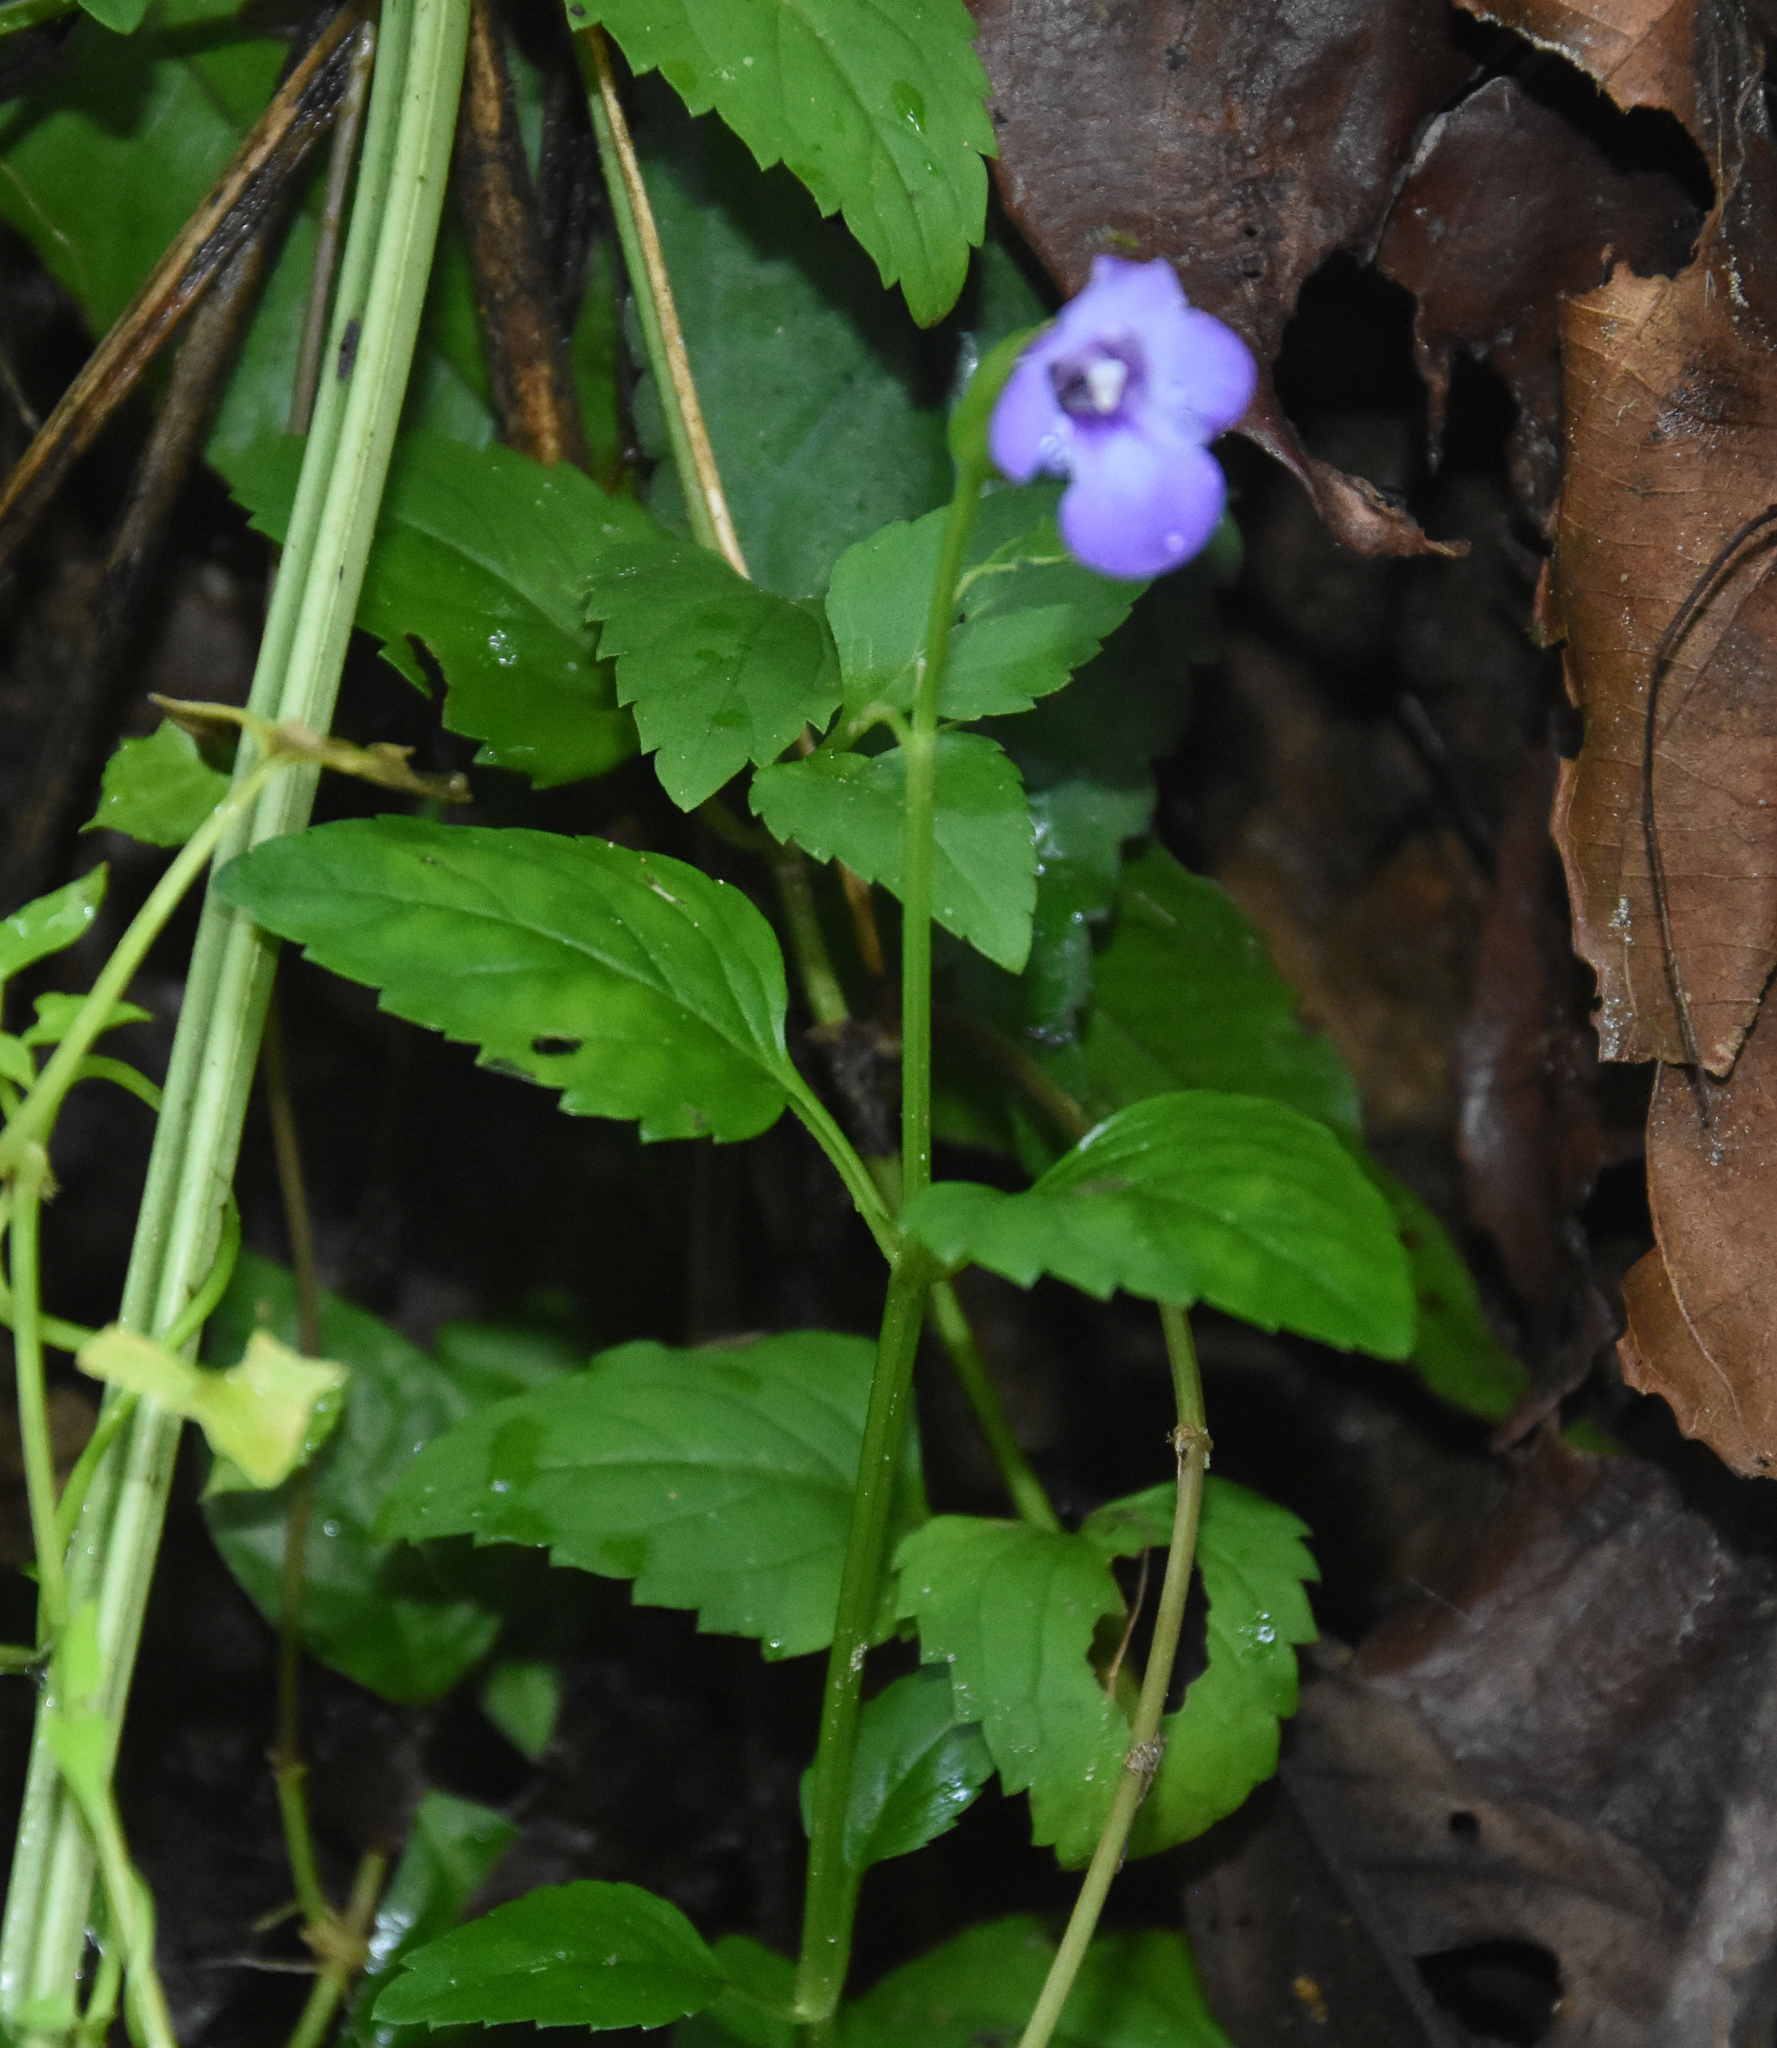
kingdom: Plantae
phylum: Tracheophyta
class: Magnoliopsida
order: Lamiales
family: Linderniaceae
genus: Torenia
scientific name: Torenia asiatica
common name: Wishbone flower
